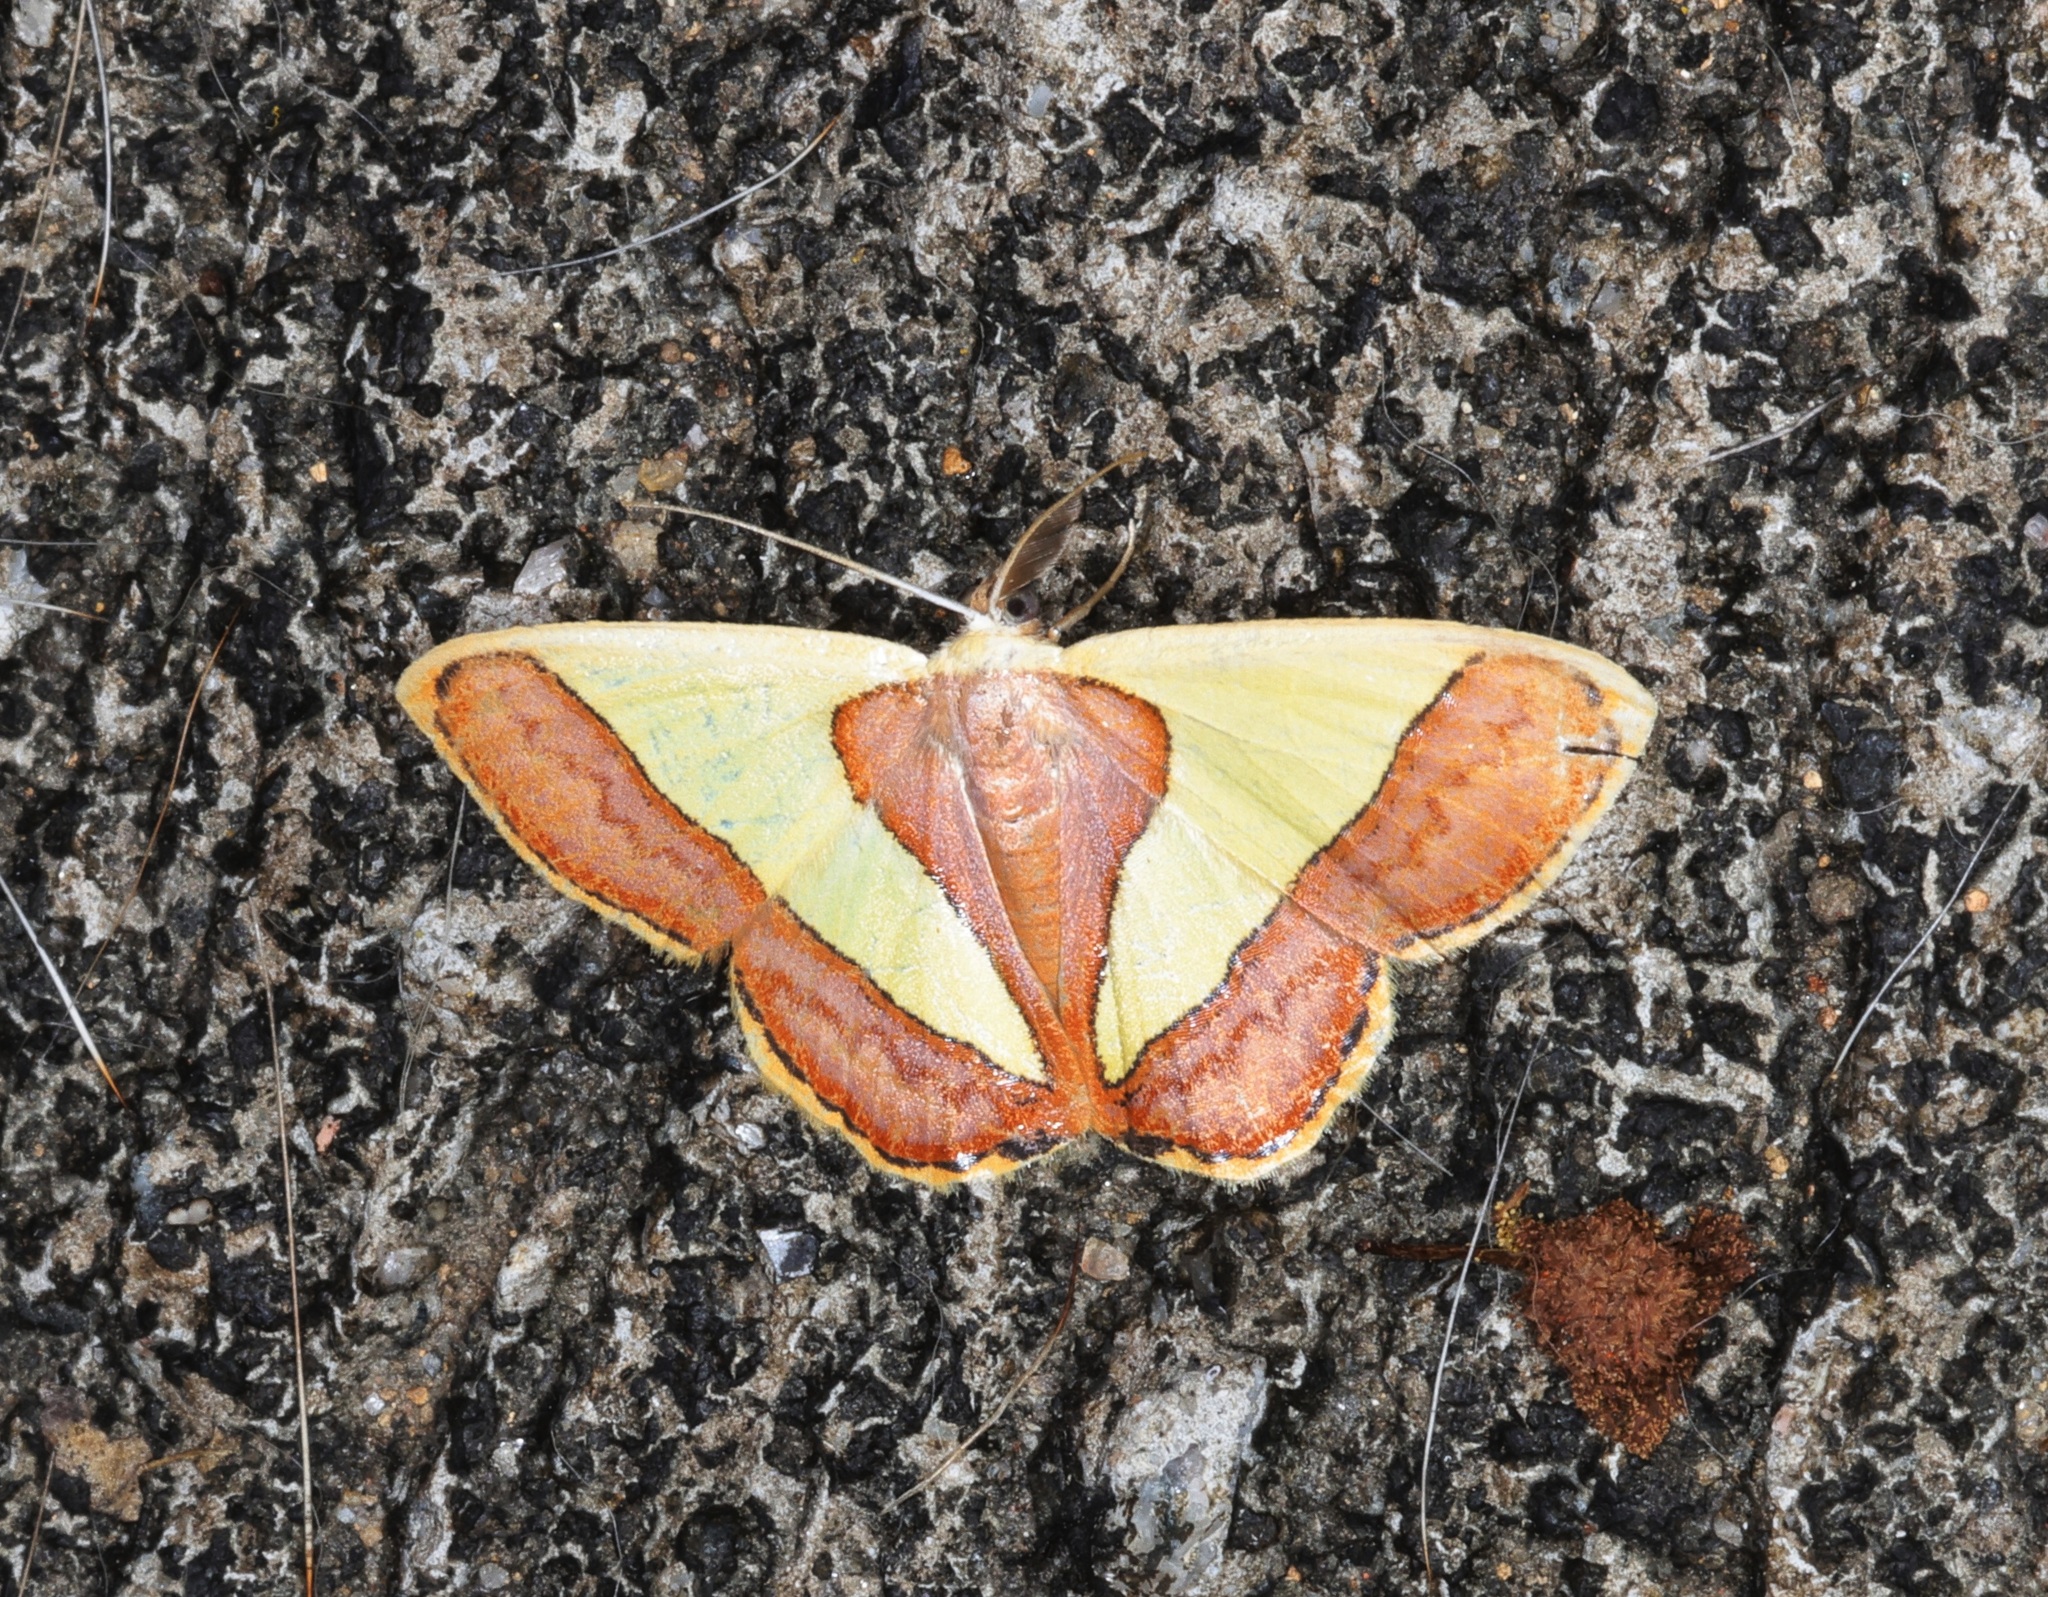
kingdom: Animalia
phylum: Arthropoda
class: Insecta
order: Lepidoptera
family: Geometridae
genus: Plutodes
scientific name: Plutodes exquisita
